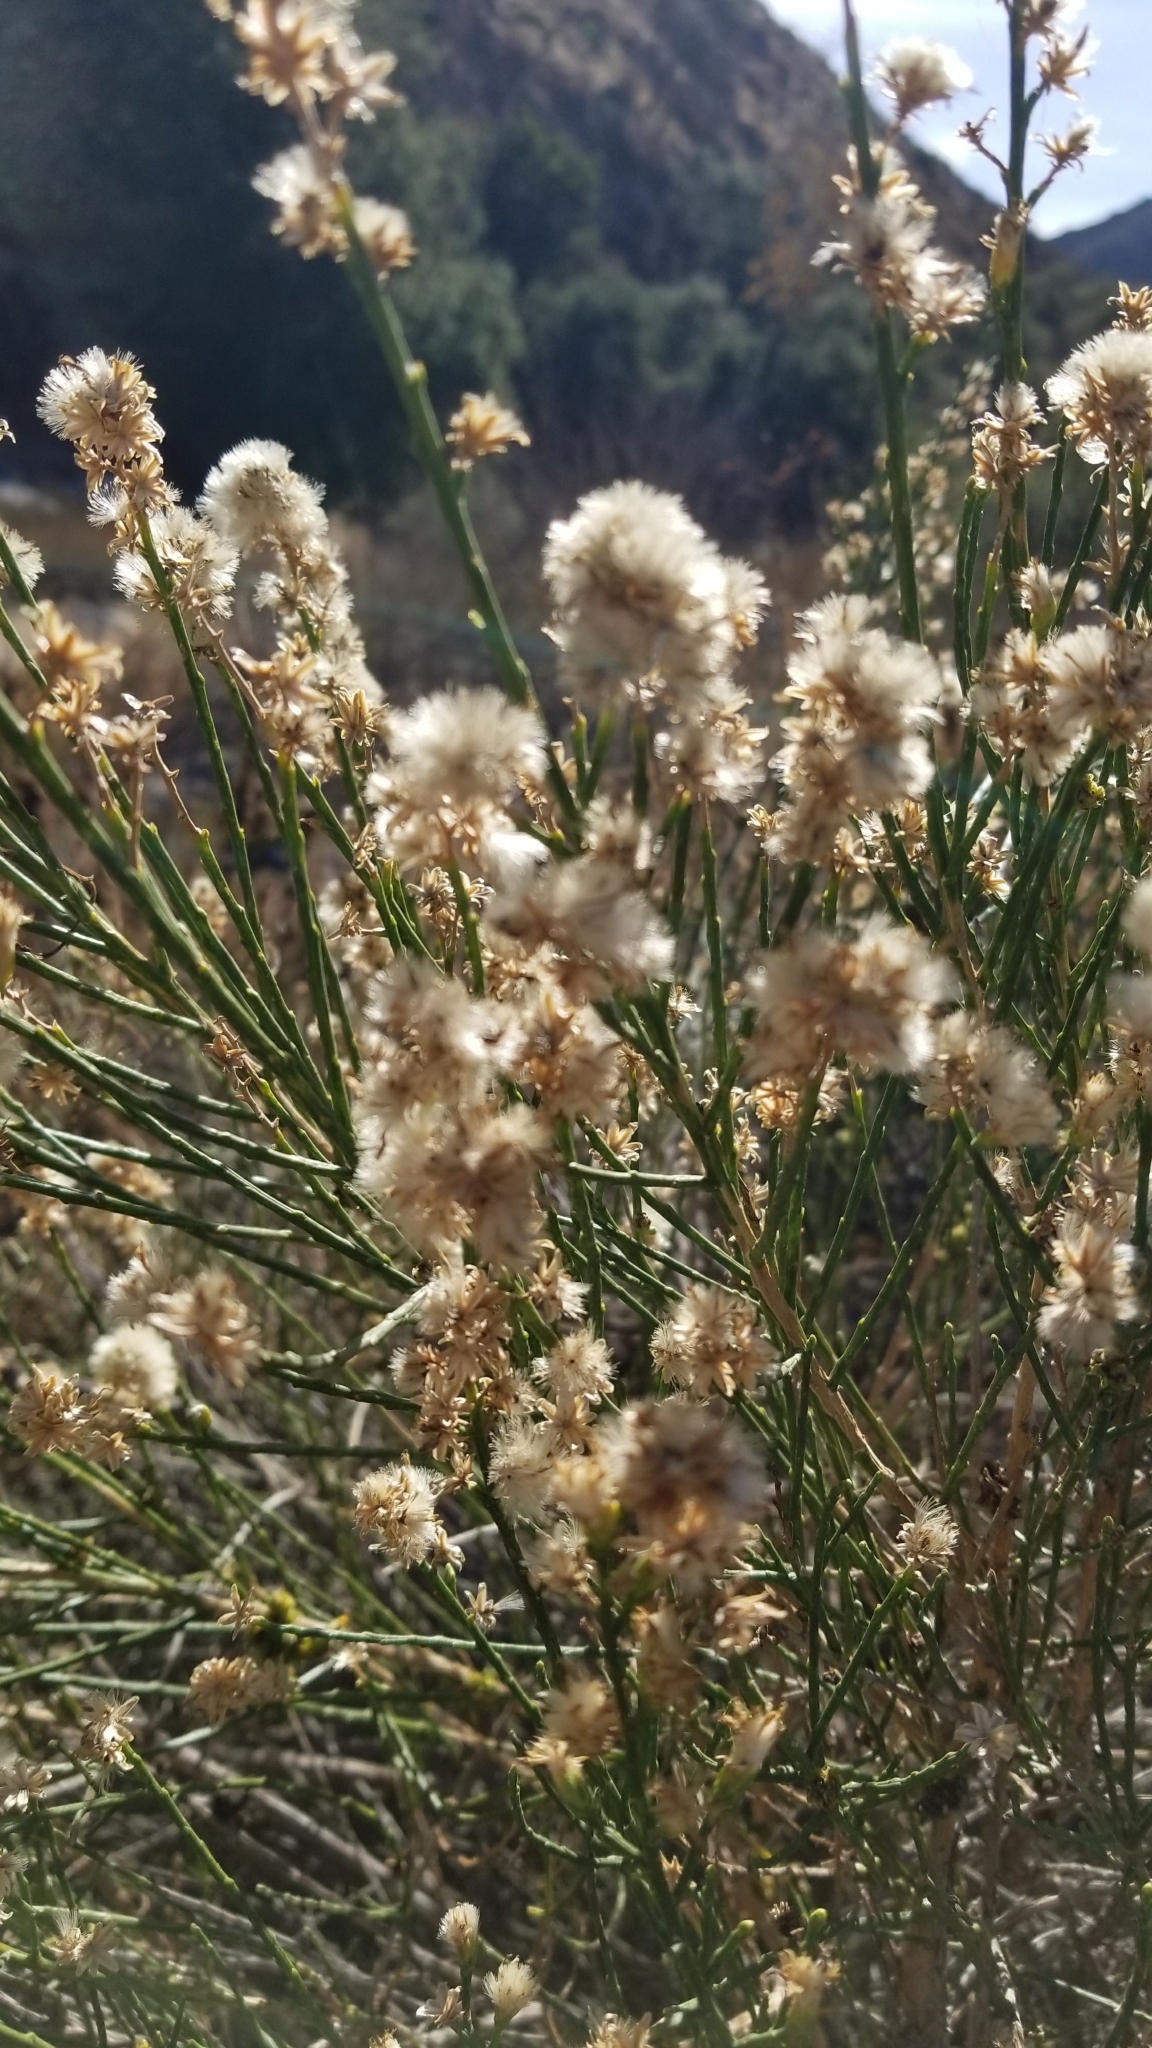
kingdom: Plantae
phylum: Tracheophyta
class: Magnoliopsida
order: Asterales
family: Asteraceae
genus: Lepidospartum
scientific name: Lepidospartum squamatum
